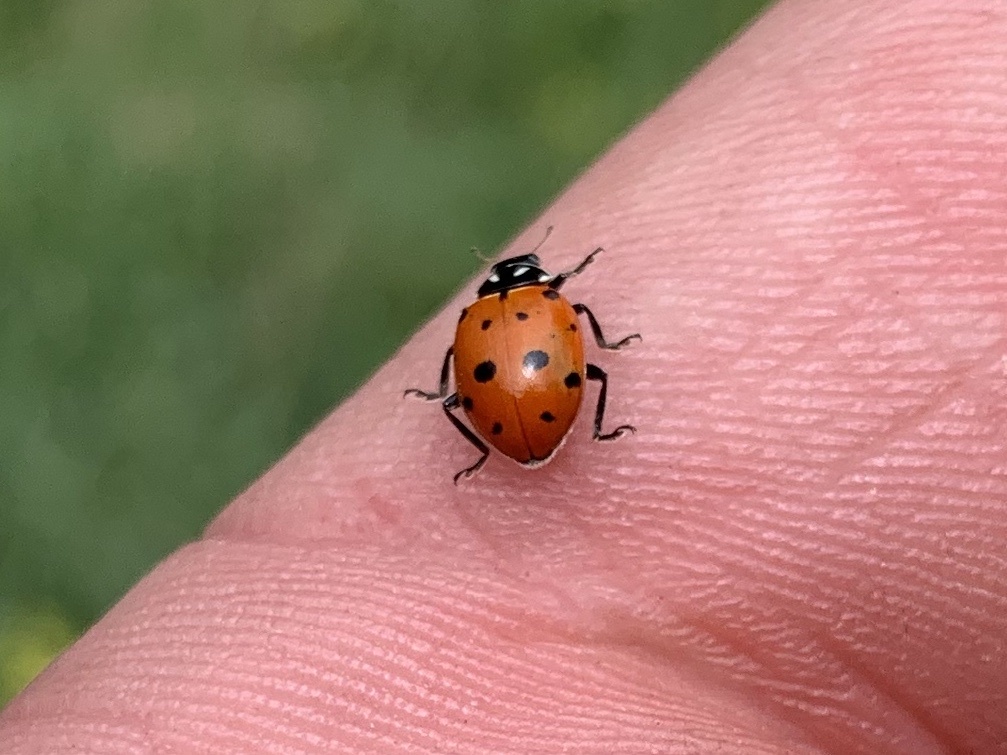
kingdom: Animalia
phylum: Arthropoda
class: Insecta
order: Coleoptera
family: Coccinellidae
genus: Hippodamia
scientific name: Hippodamia convergens
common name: Convergent lady beetle
